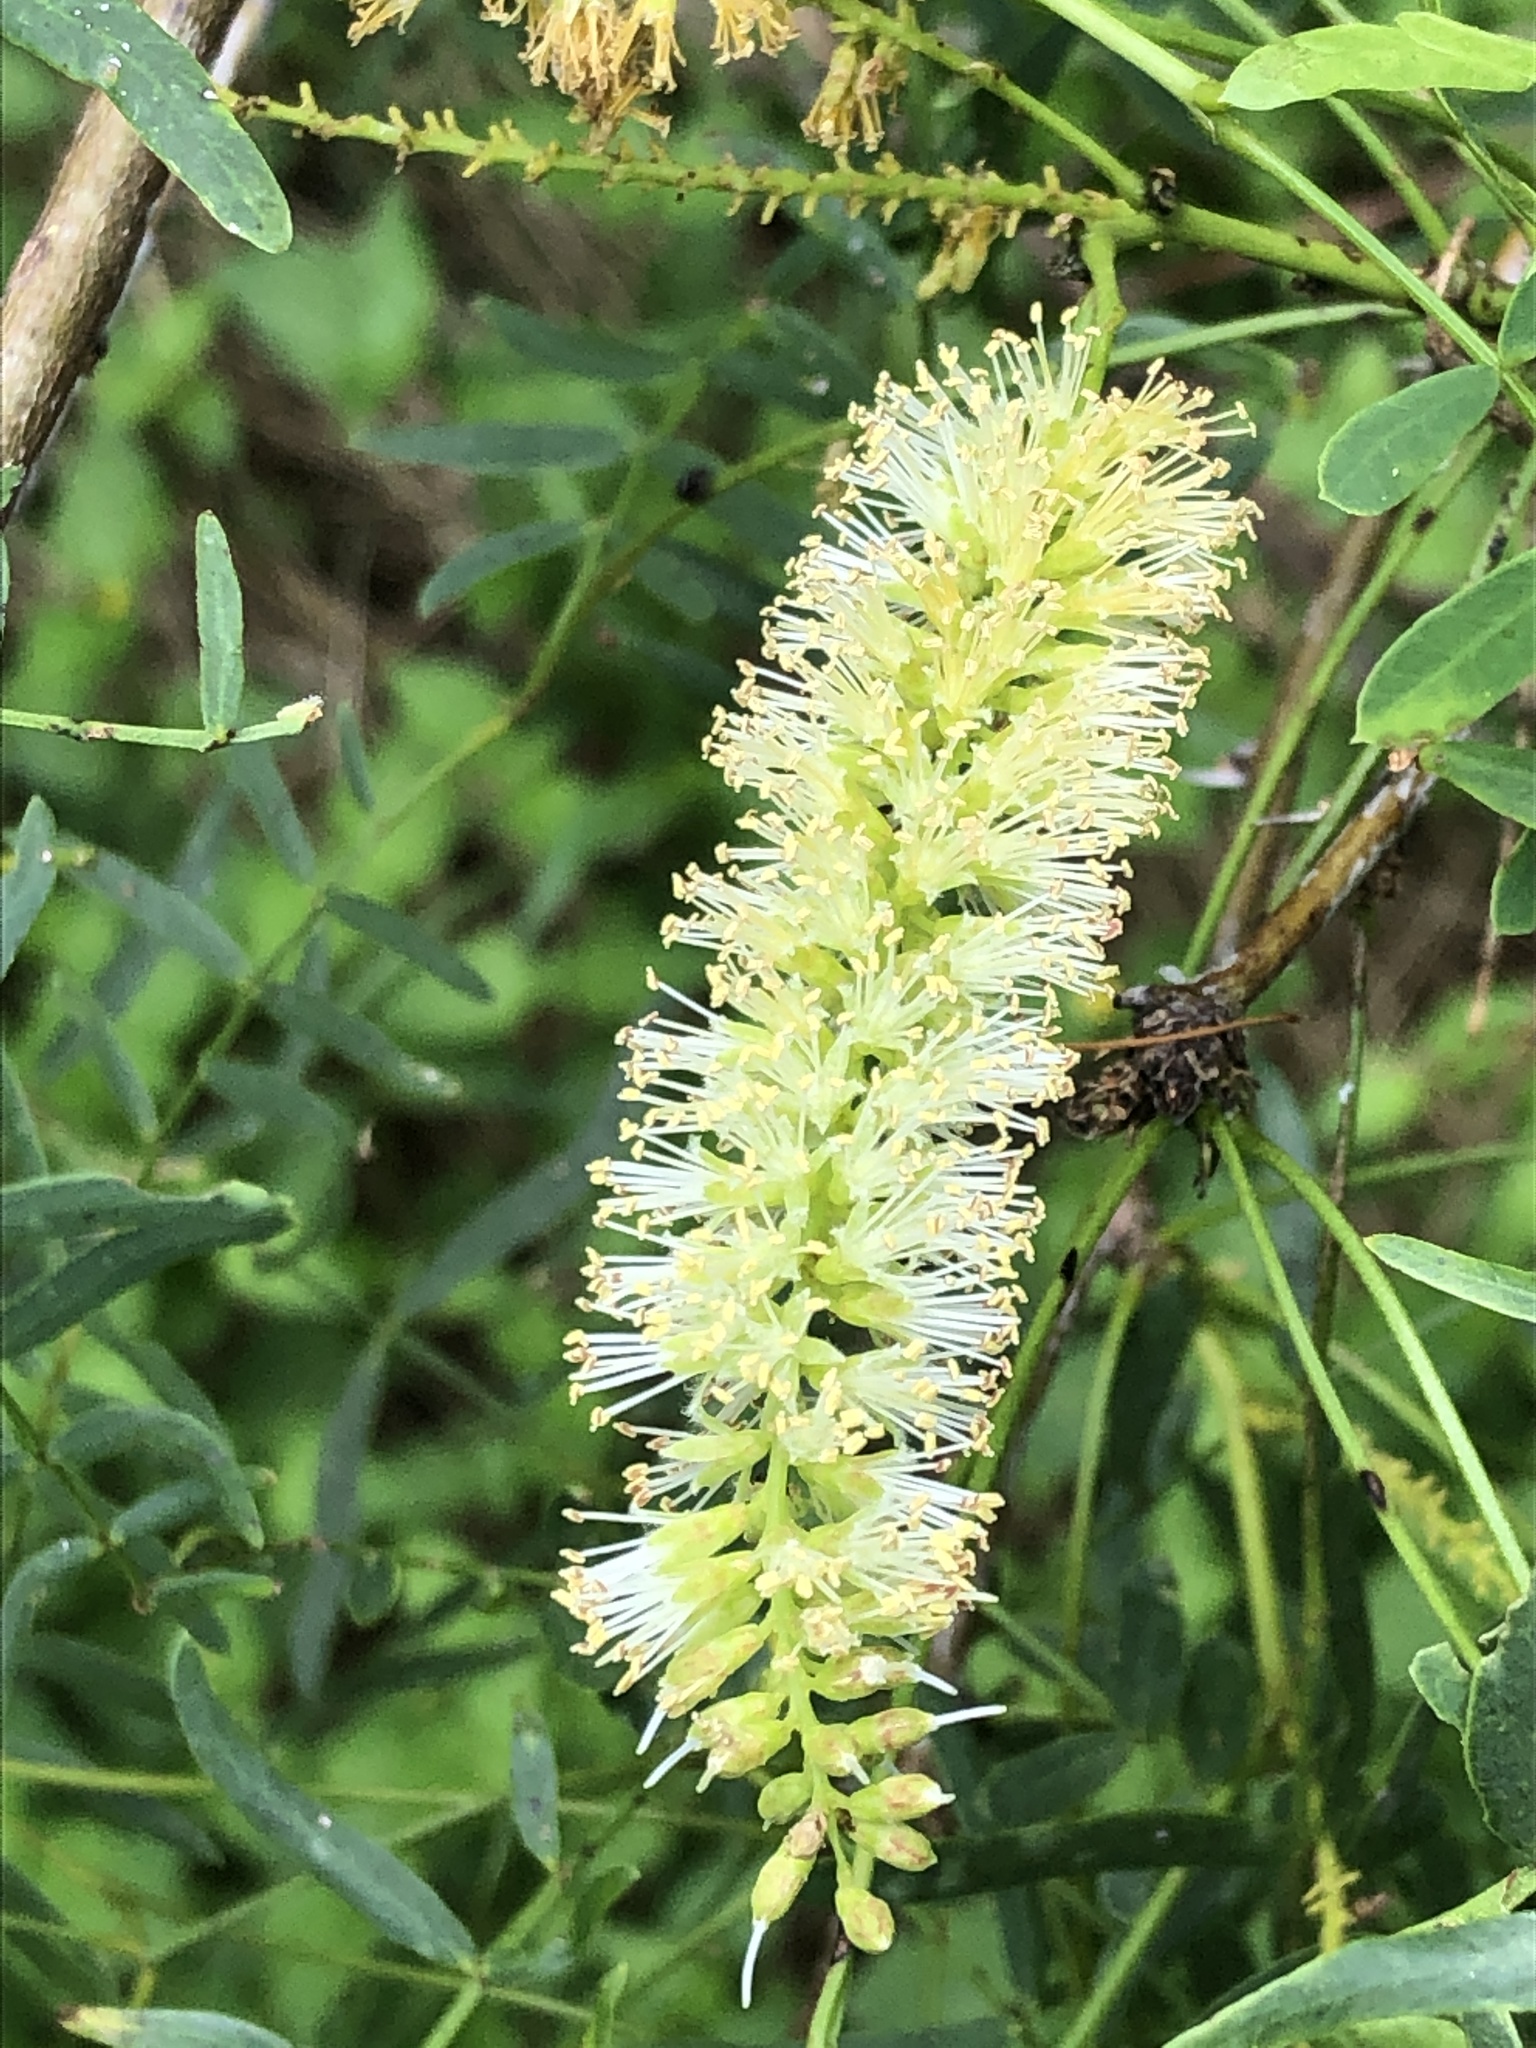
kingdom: Plantae
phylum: Tracheophyta
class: Magnoliopsida
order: Fabales
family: Fabaceae
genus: Prosopis
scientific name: Prosopis glandulosa
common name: Honey mesquite
